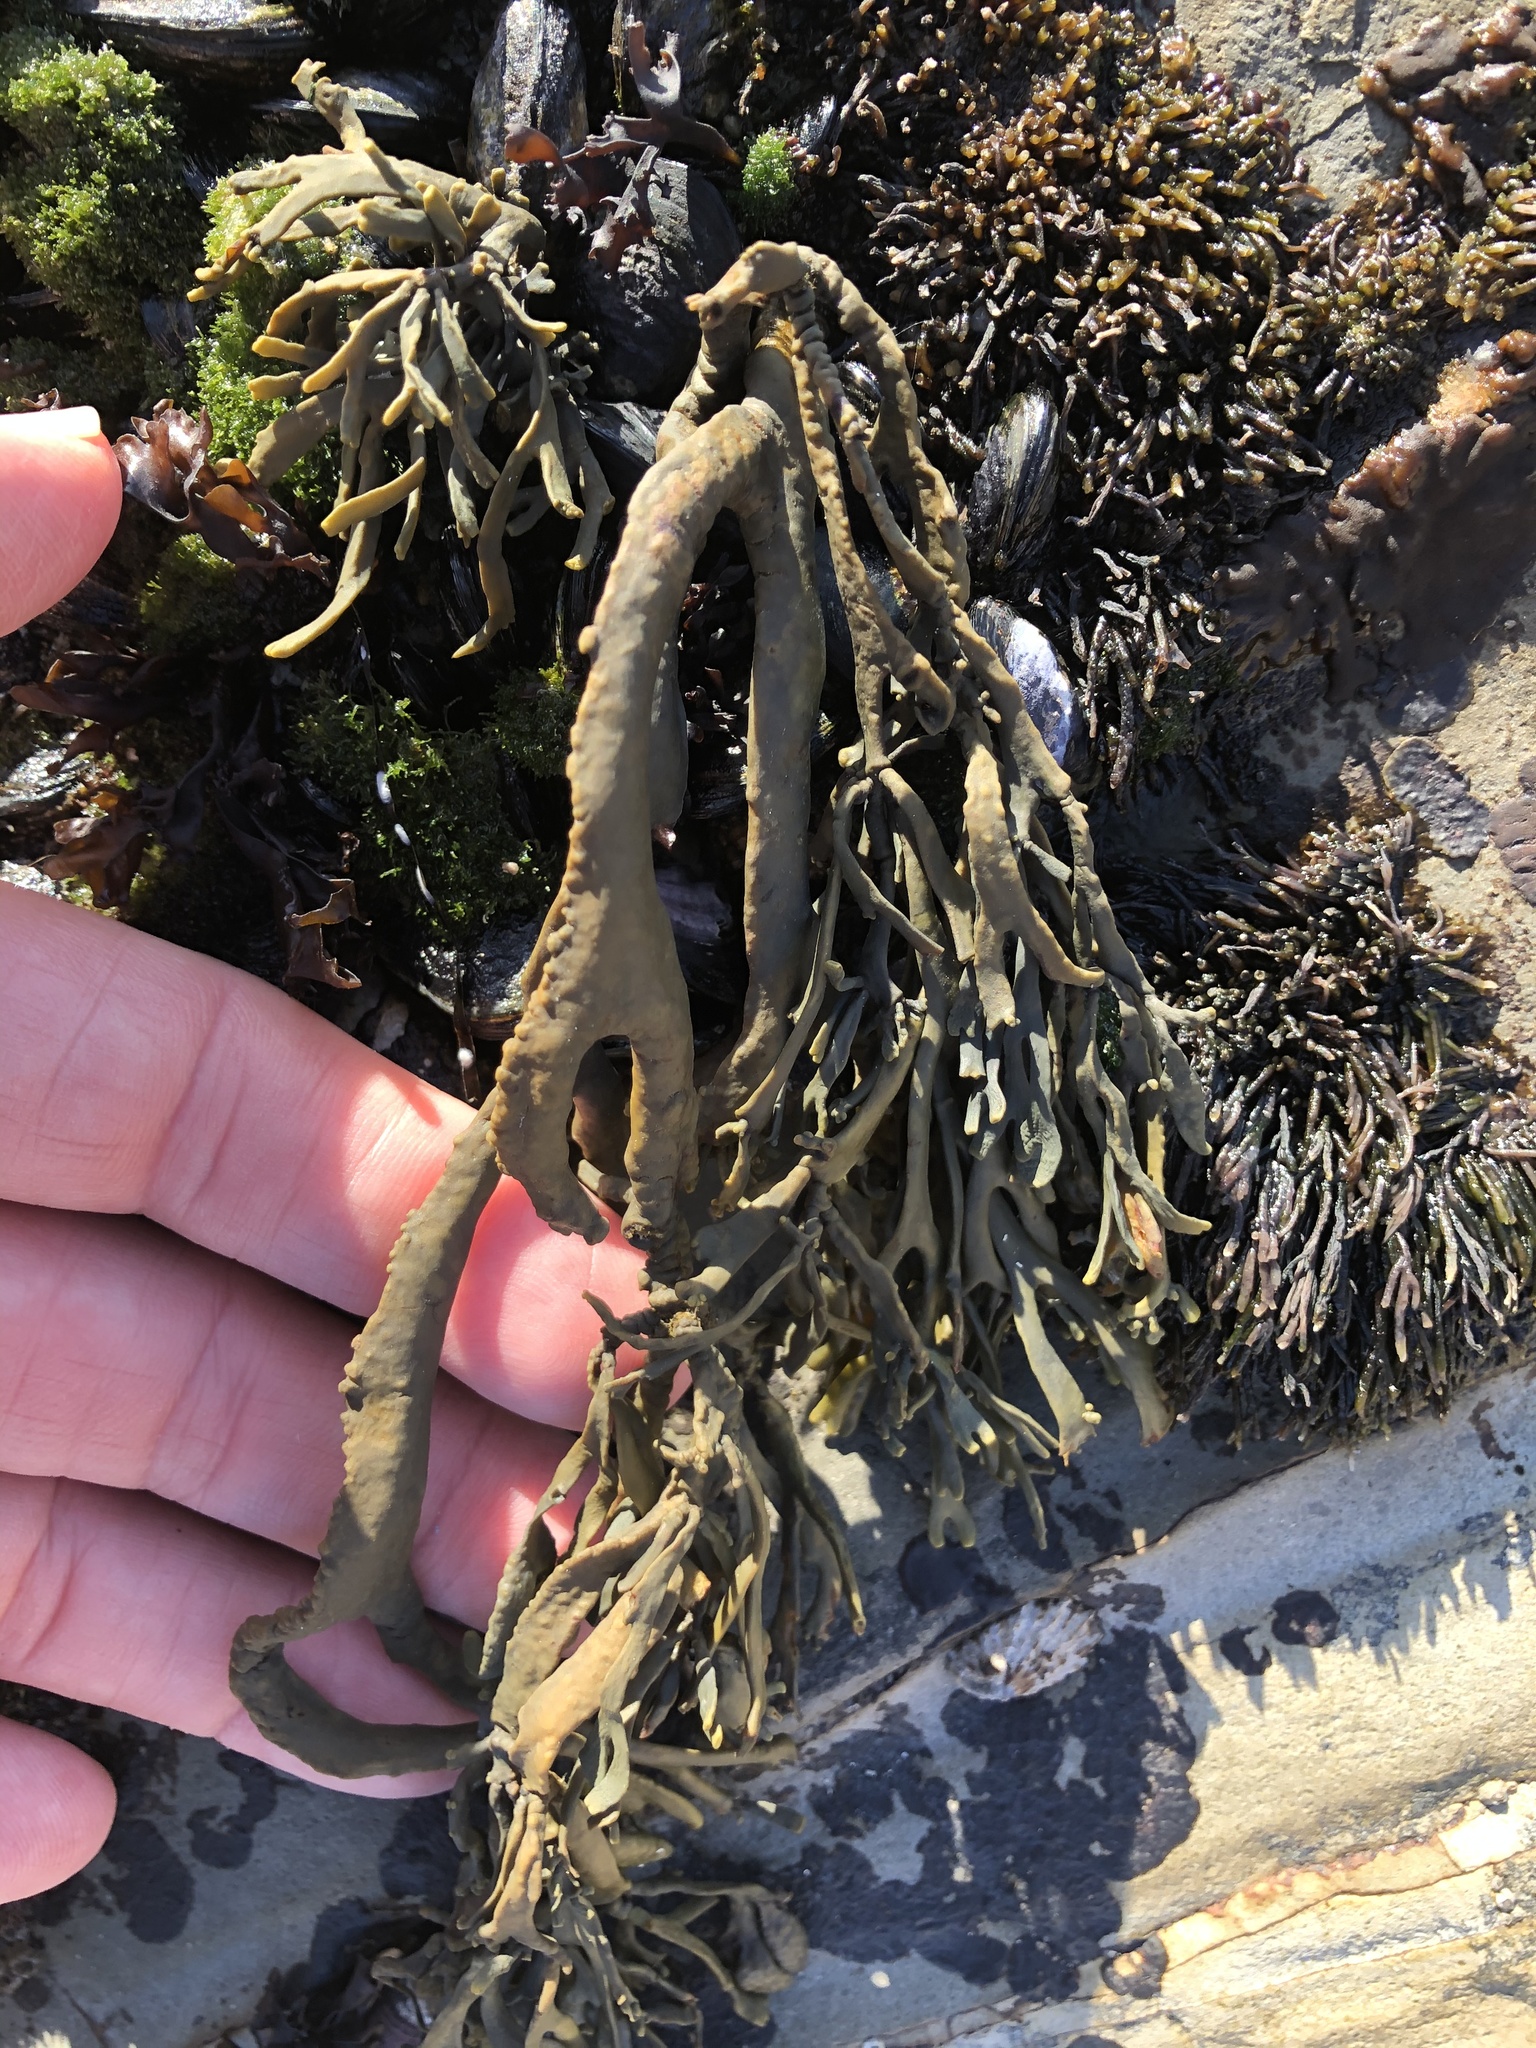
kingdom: Chromista
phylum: Ochrophyta
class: Phaeophyceae
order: Fucales
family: Fucaceae
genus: Silvetia
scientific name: Silvetia
